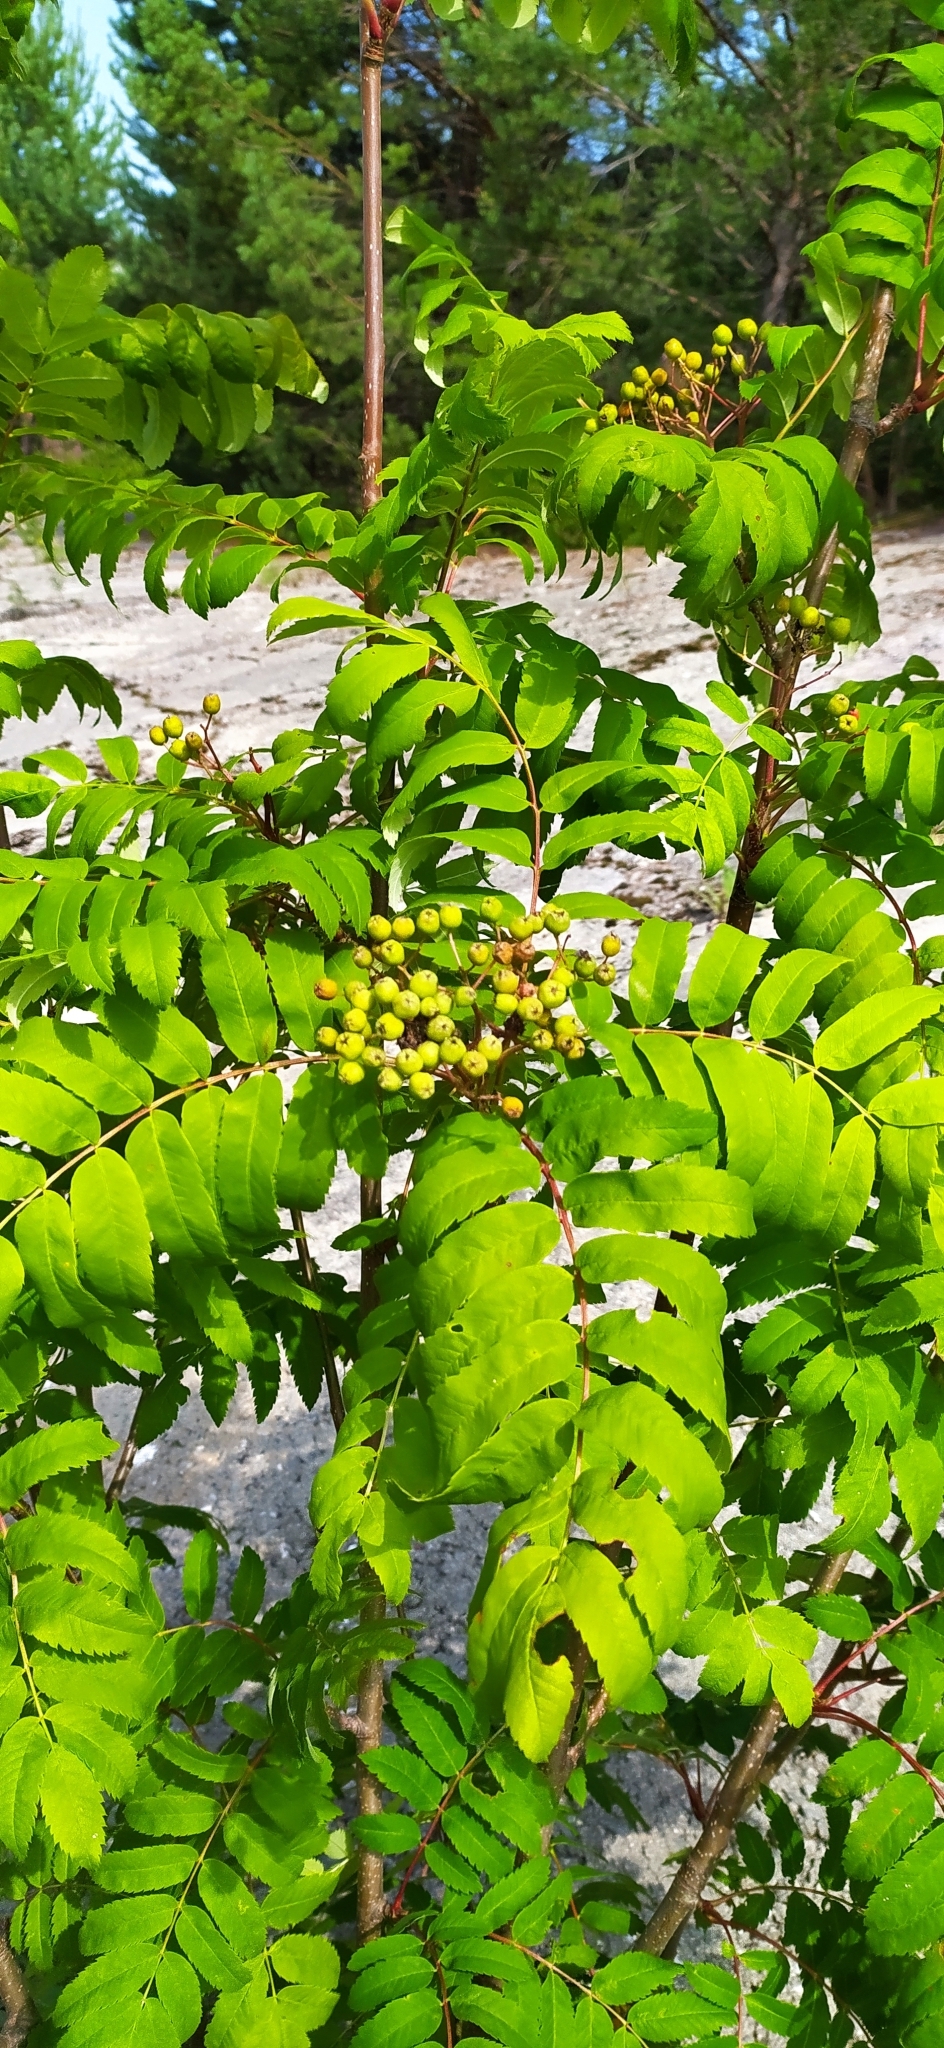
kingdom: Plantae
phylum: Tracheophyta
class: Magnoliopsida
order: Rosales
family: Rosaceae
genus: Sorbus
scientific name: Sorbus aucuparia
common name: Rowan
